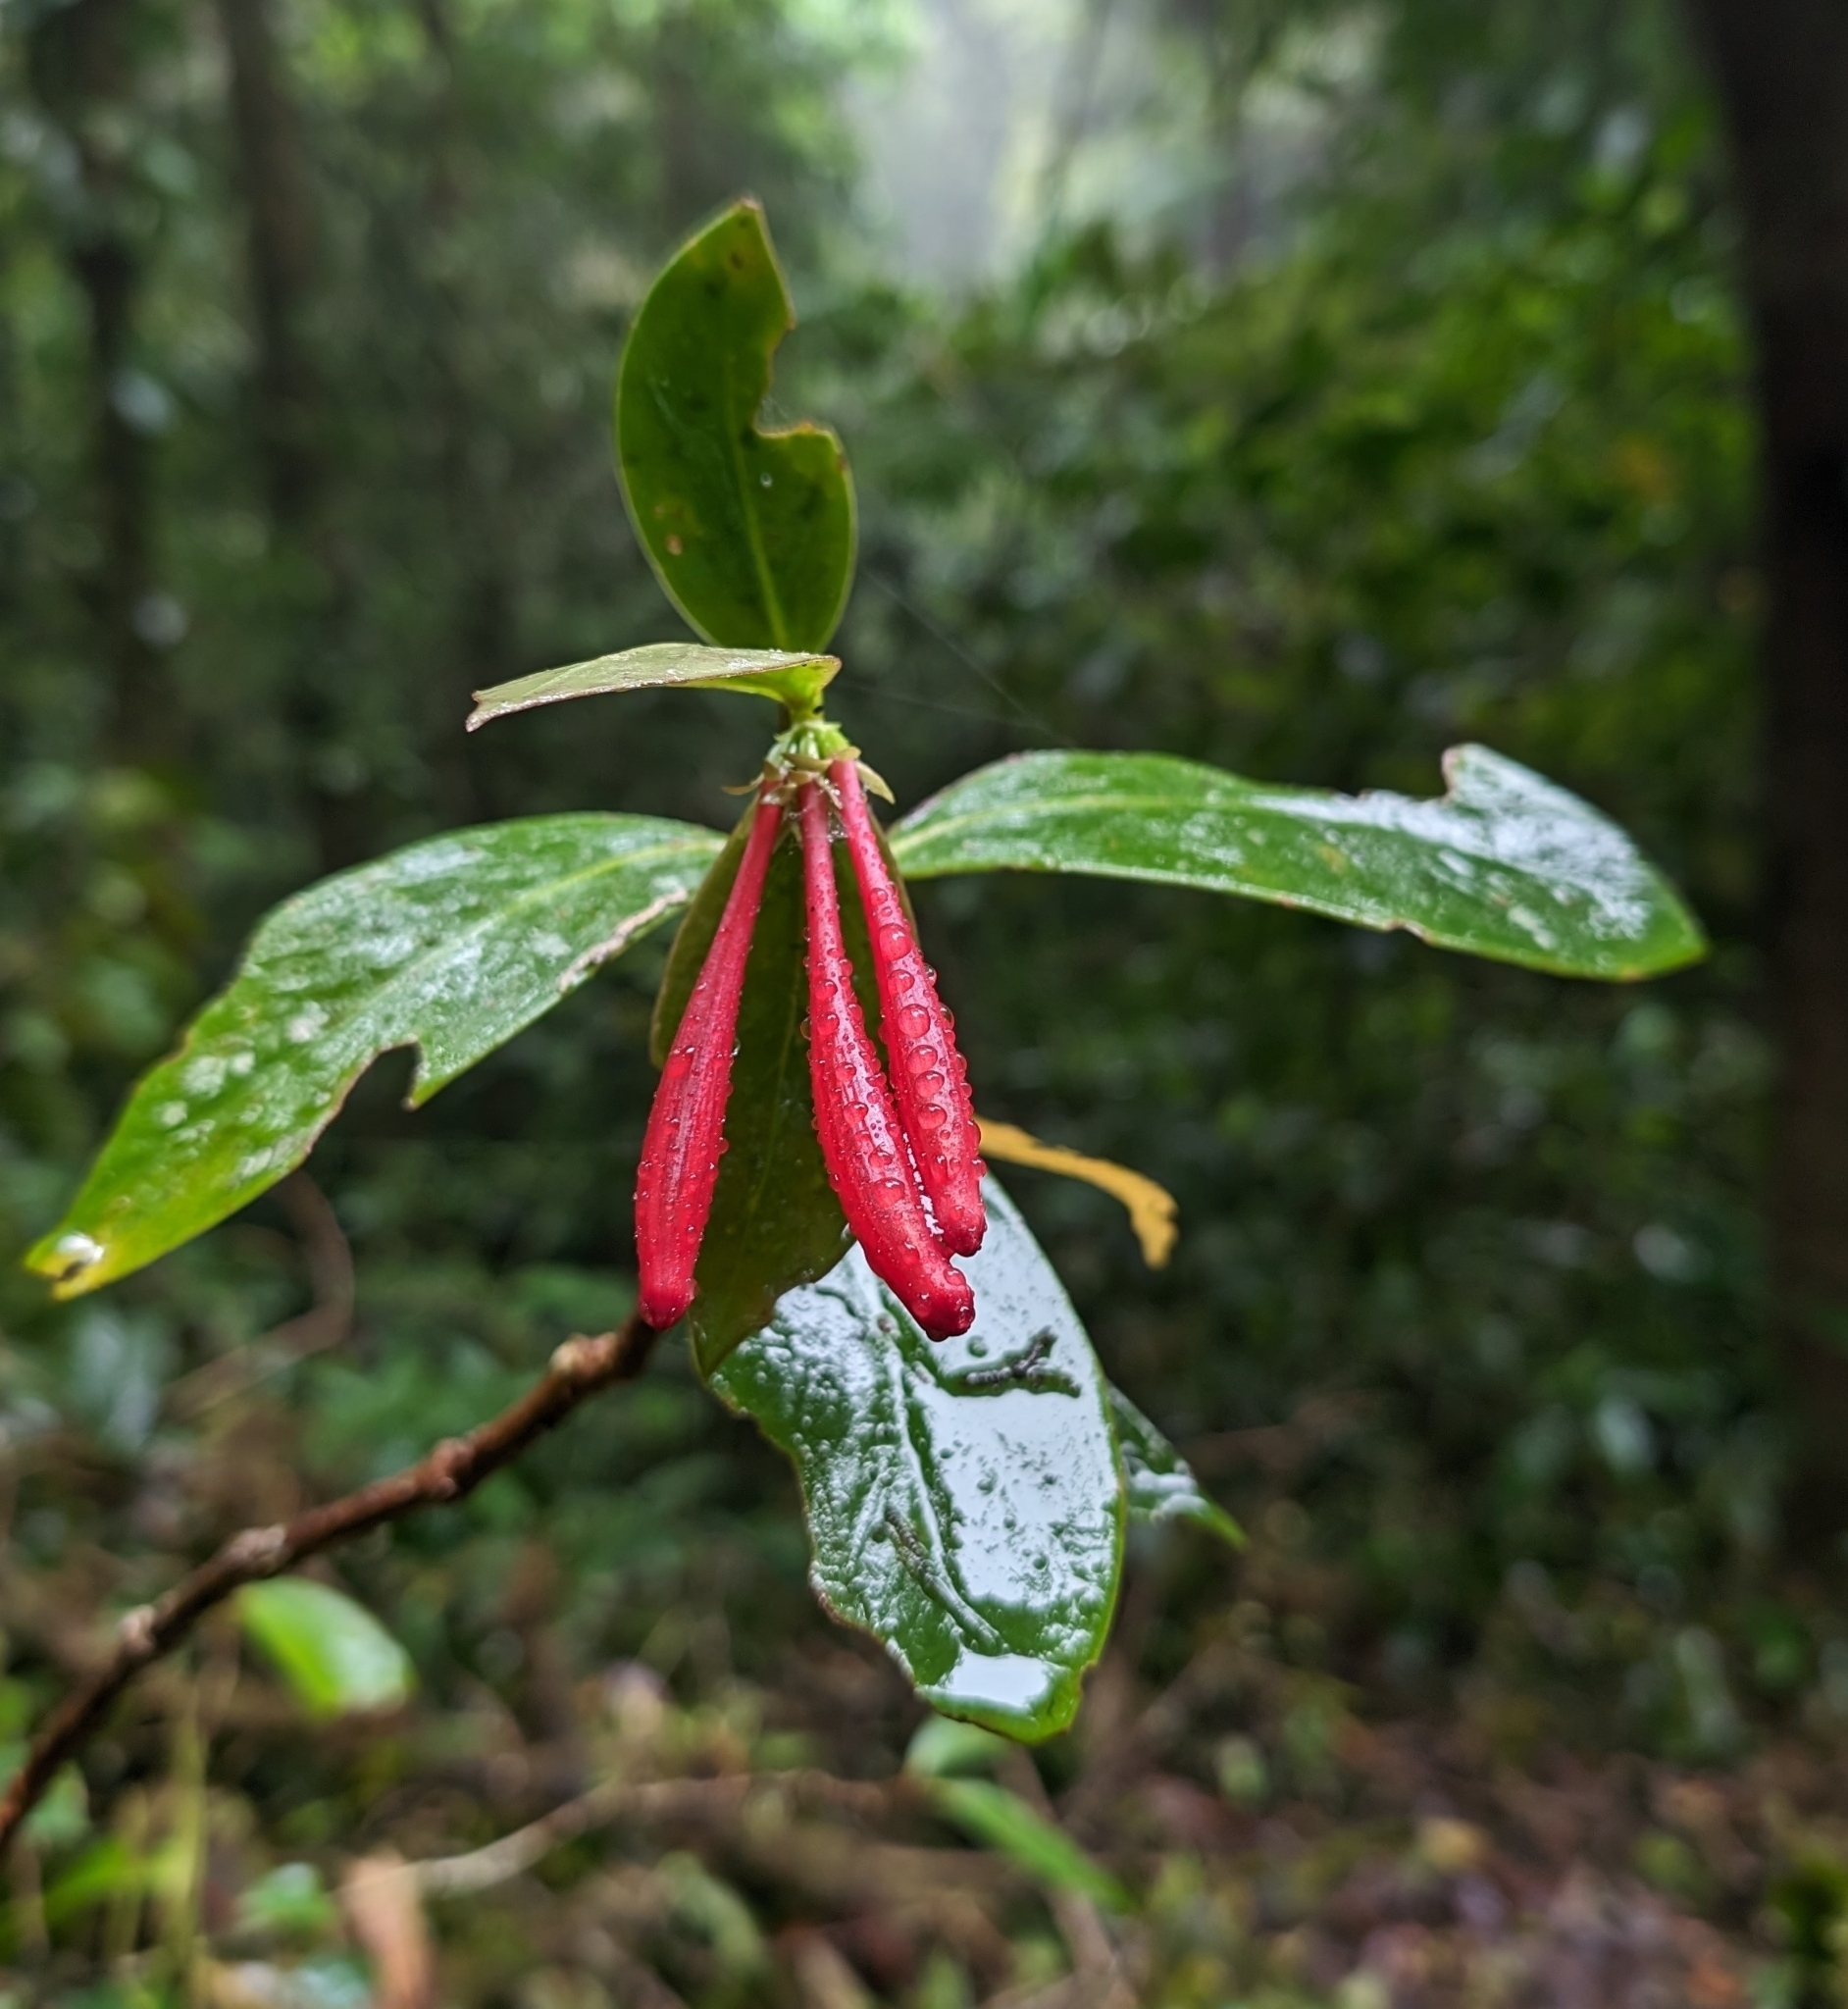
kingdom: Plantae
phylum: Tracheophyta
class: Magnoliopsida
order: Gentianales
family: Rubiaceae
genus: Hillia
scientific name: Hillia triflora
